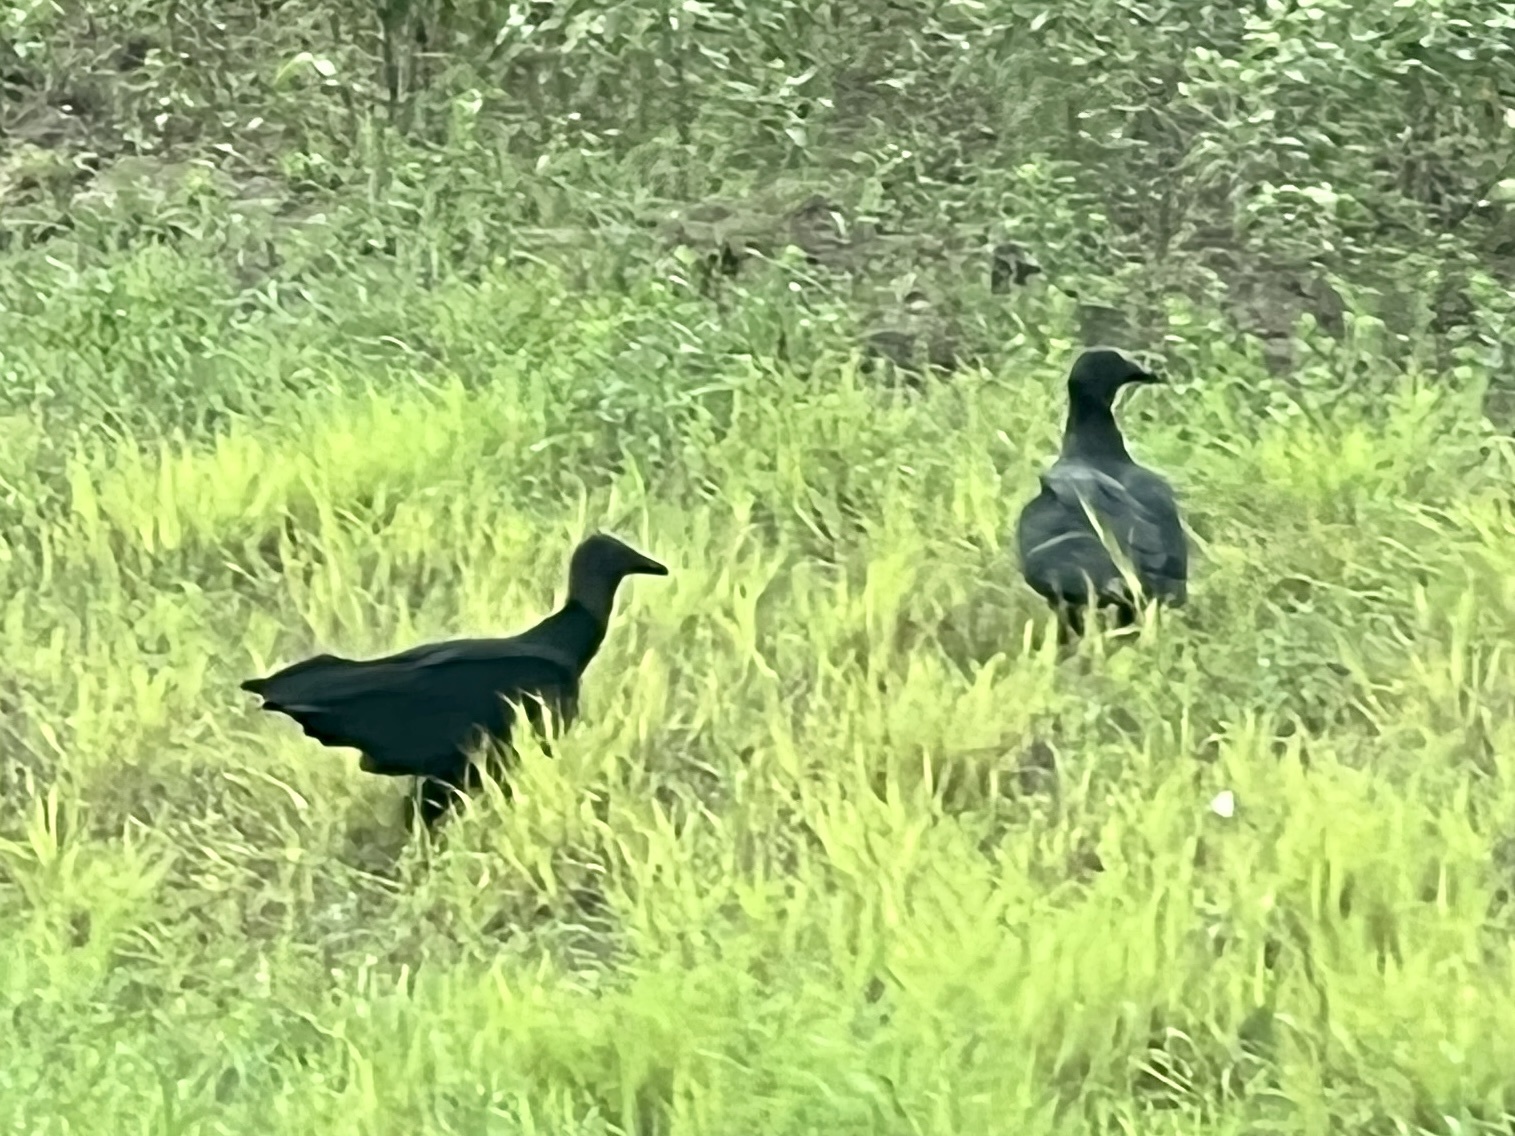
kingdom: Animalia
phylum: Chordata
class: Aves
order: Accipitriformes
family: Cathartidae
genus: Coragyps
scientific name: Coragyps atratus
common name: Black vulture
